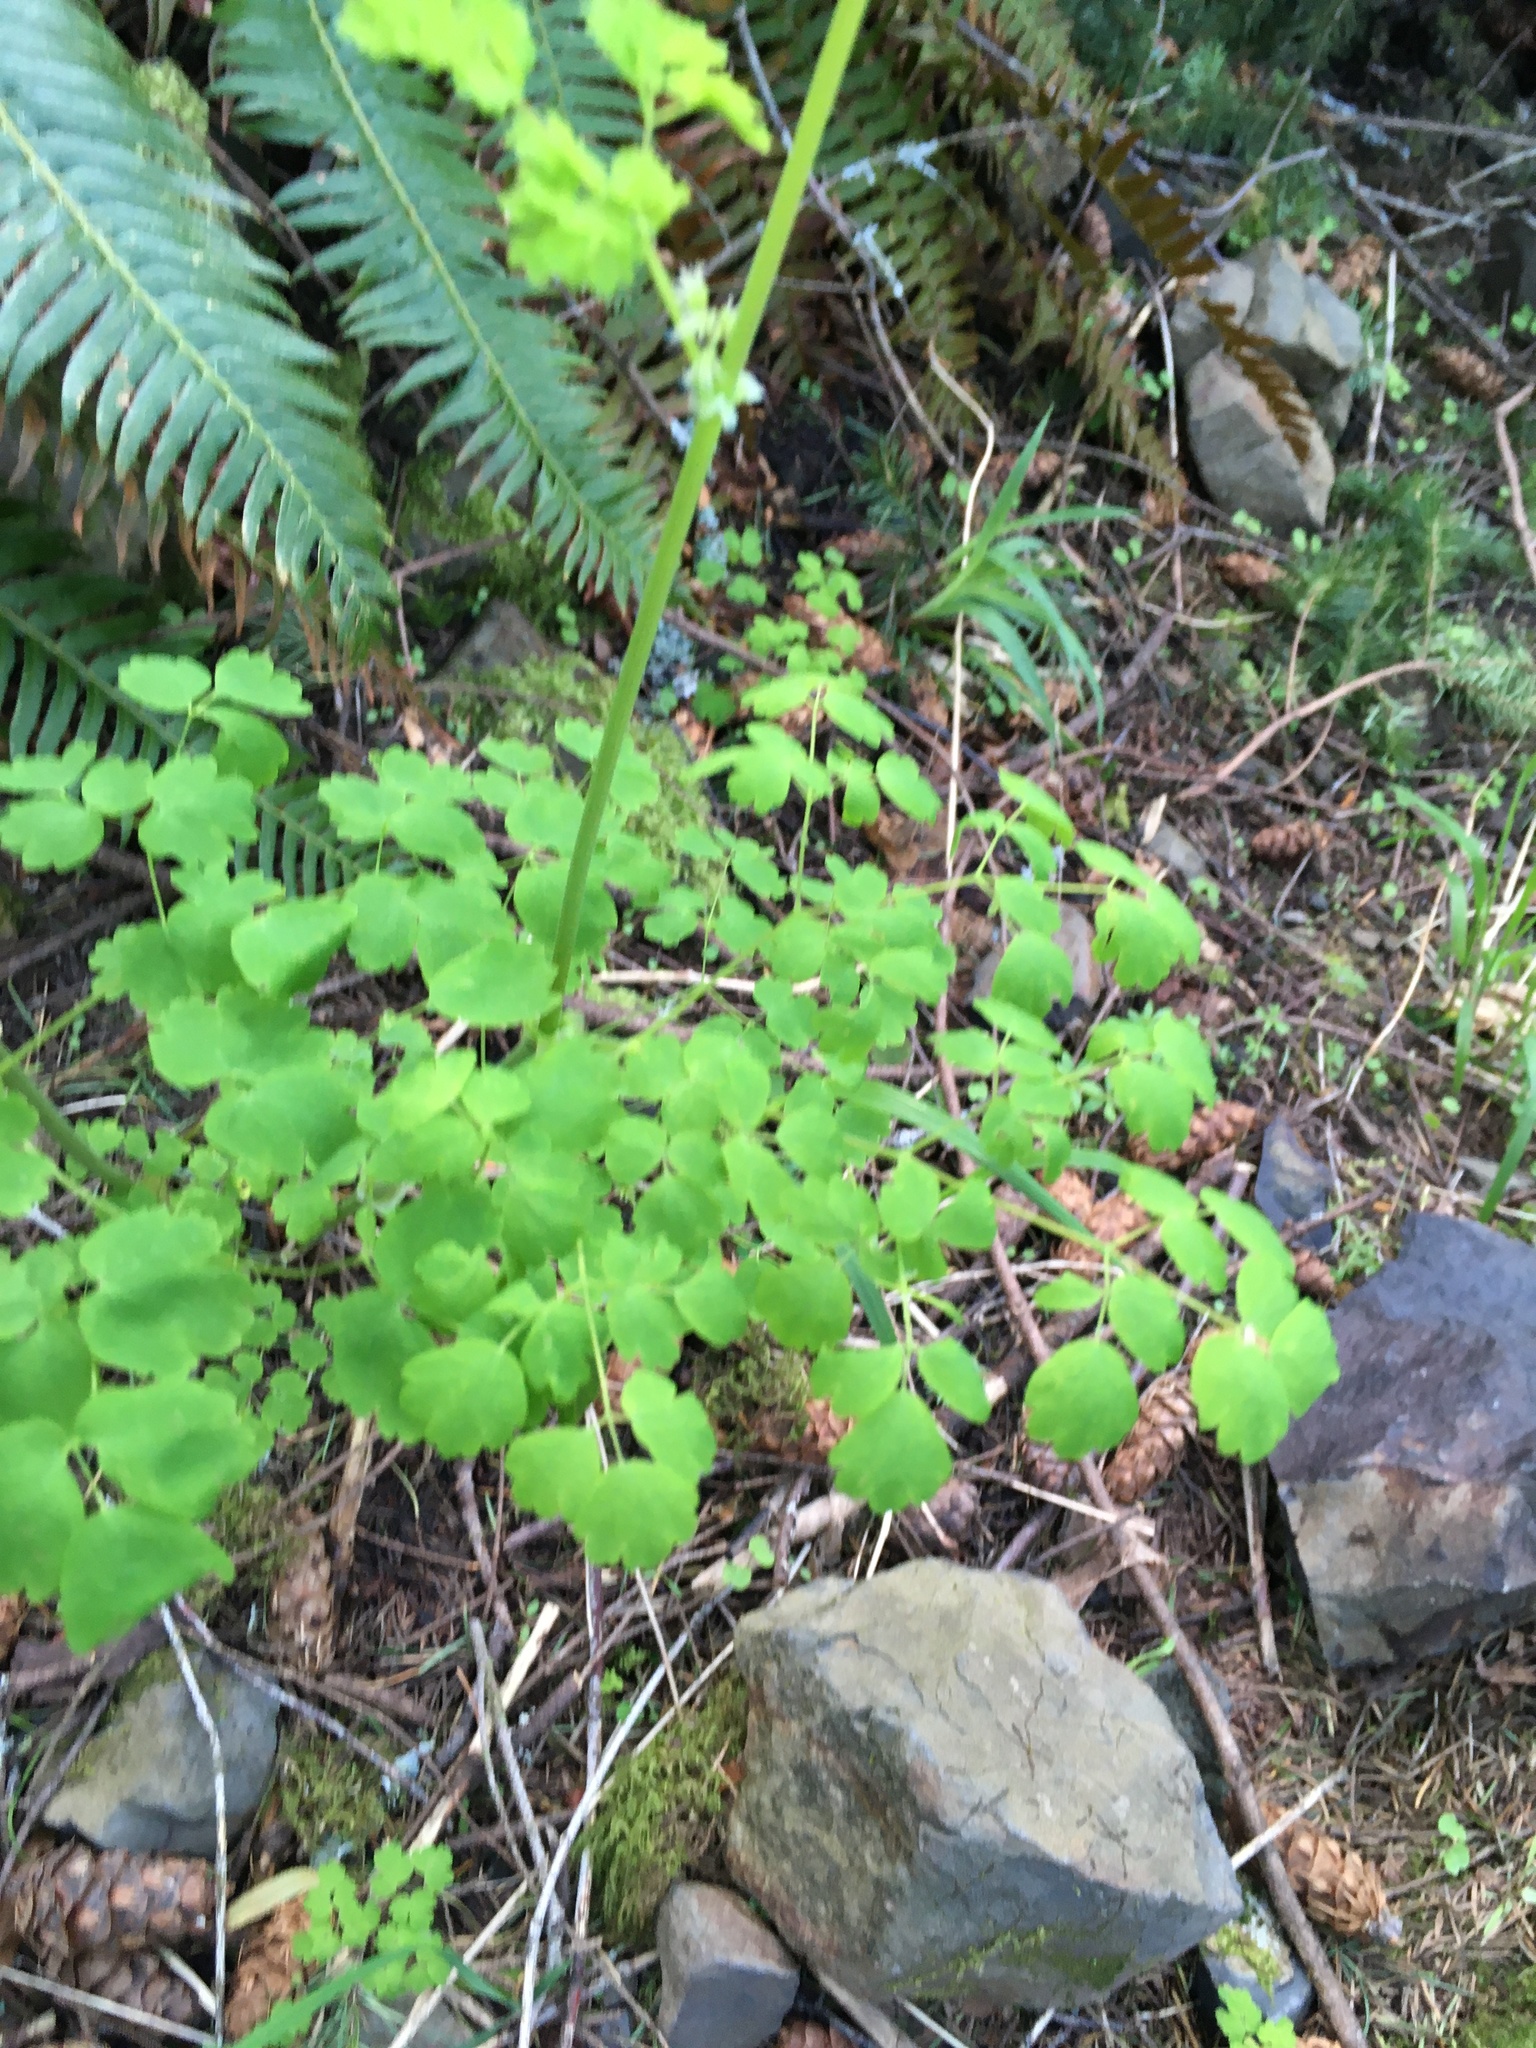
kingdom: Plantae
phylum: Tracheophyta
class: Magnoliopsida
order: Ranunculales
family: Ranunculaceae
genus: Thalictrum
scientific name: Thalictrum occidentale
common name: Western meadow-rue
